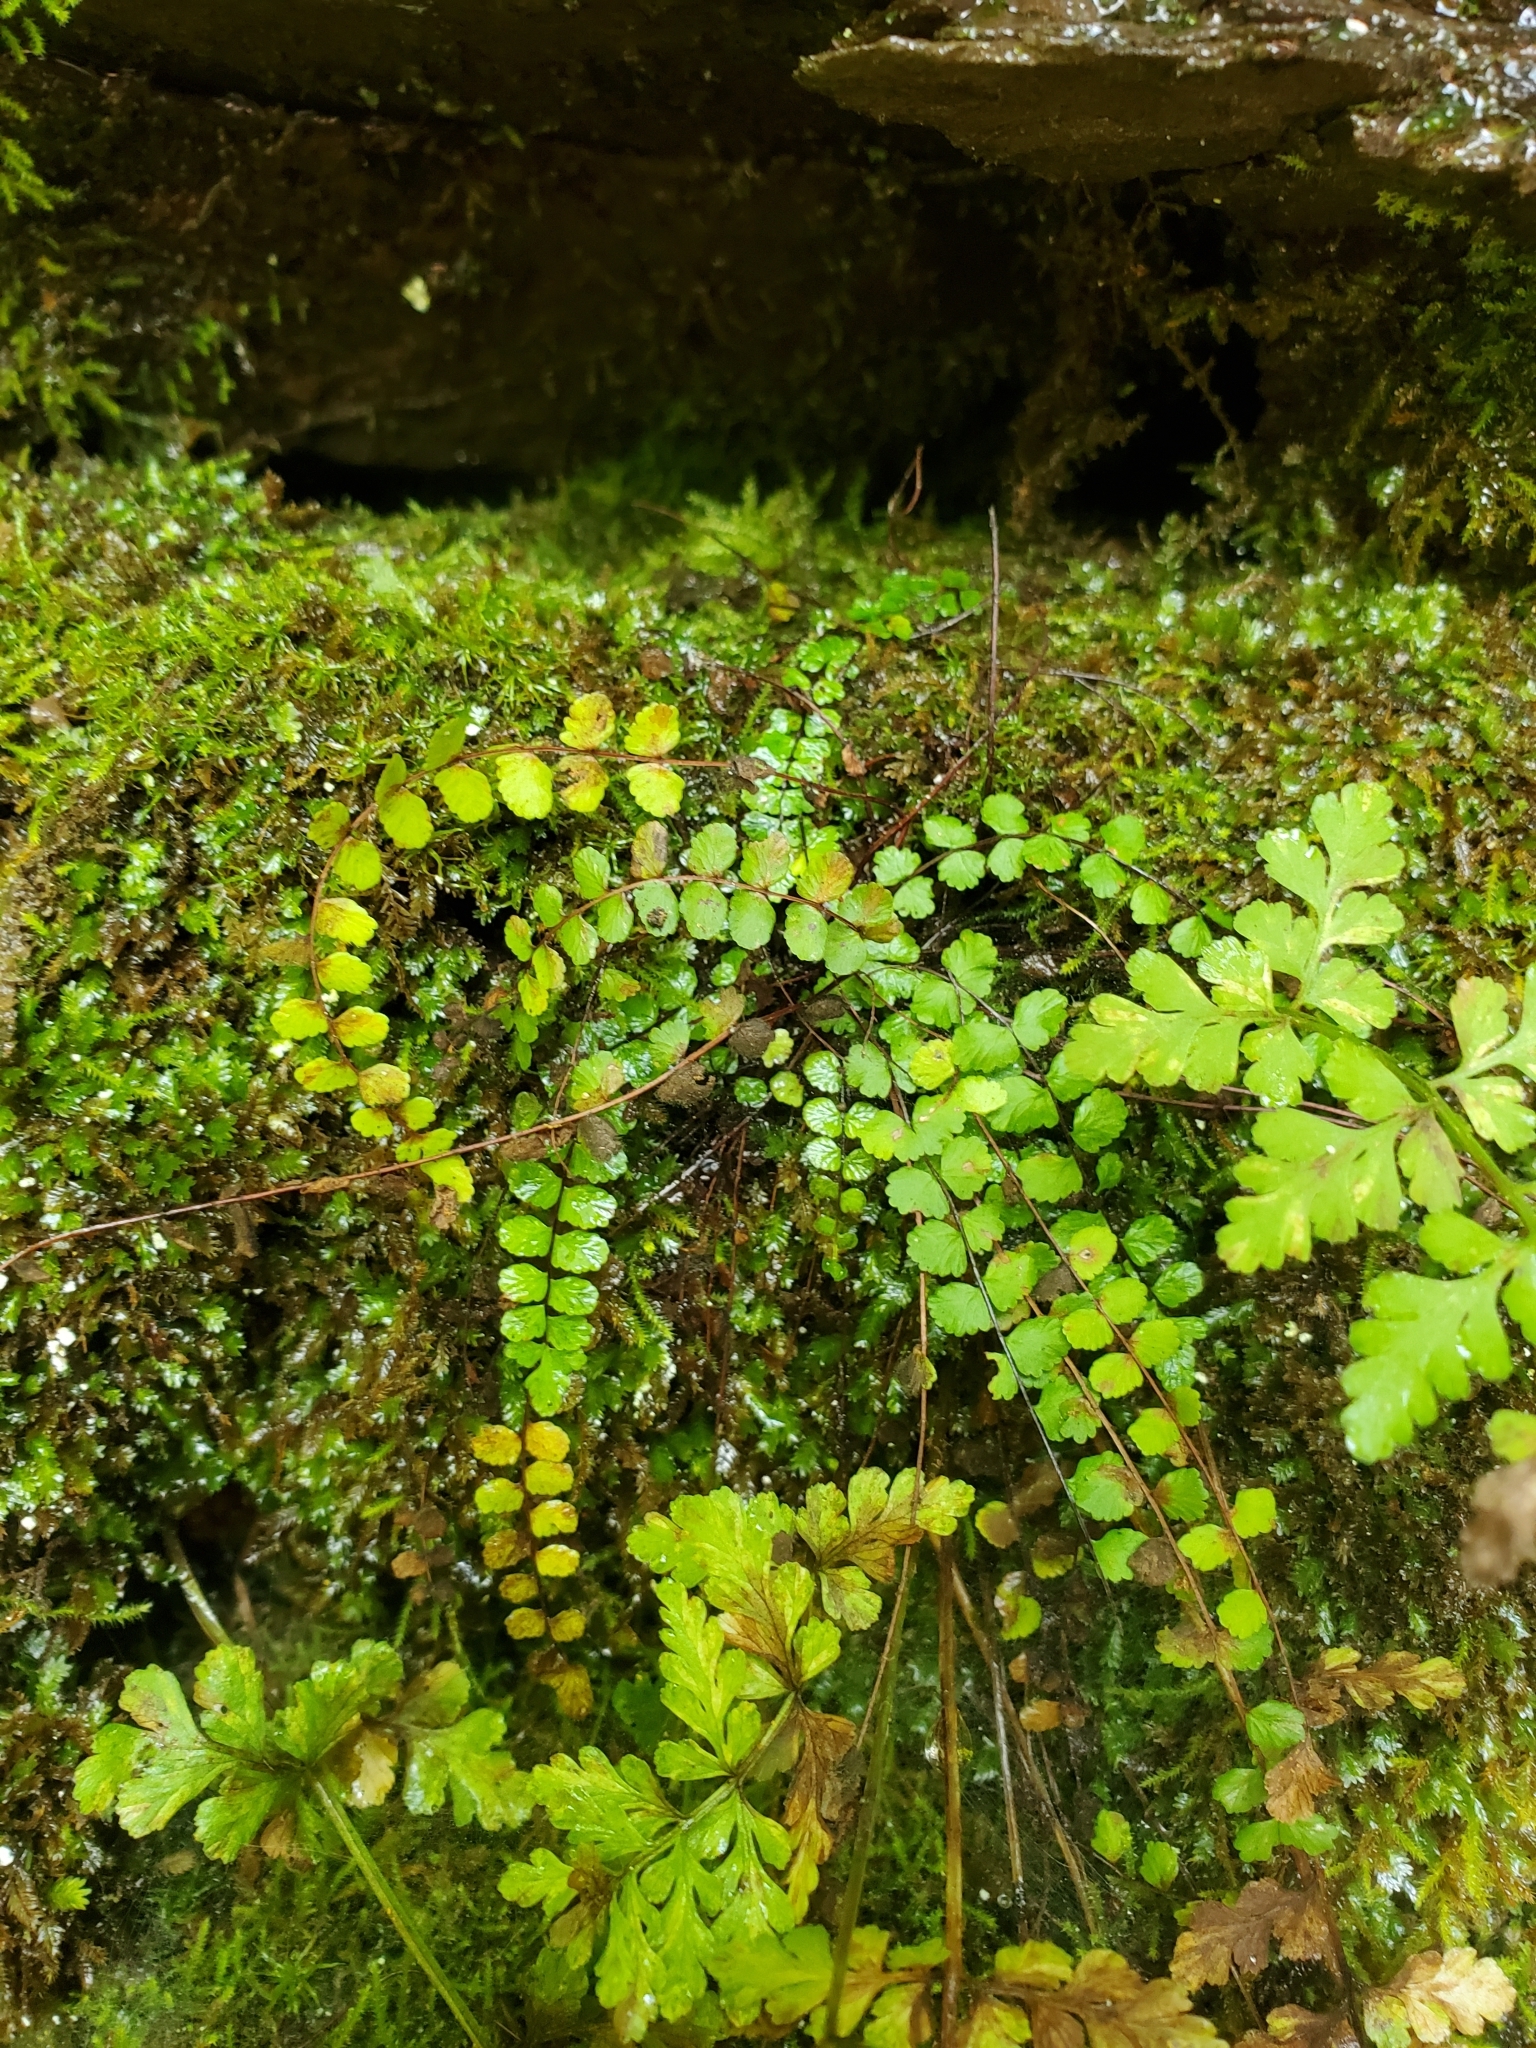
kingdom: Plantae
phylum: Tracheophyta
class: Polypodiopsida
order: Polypodiales
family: Aspleniaceae
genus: Asplenium
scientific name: Asplenium trichomanes
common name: Maidenhair spleenwort
